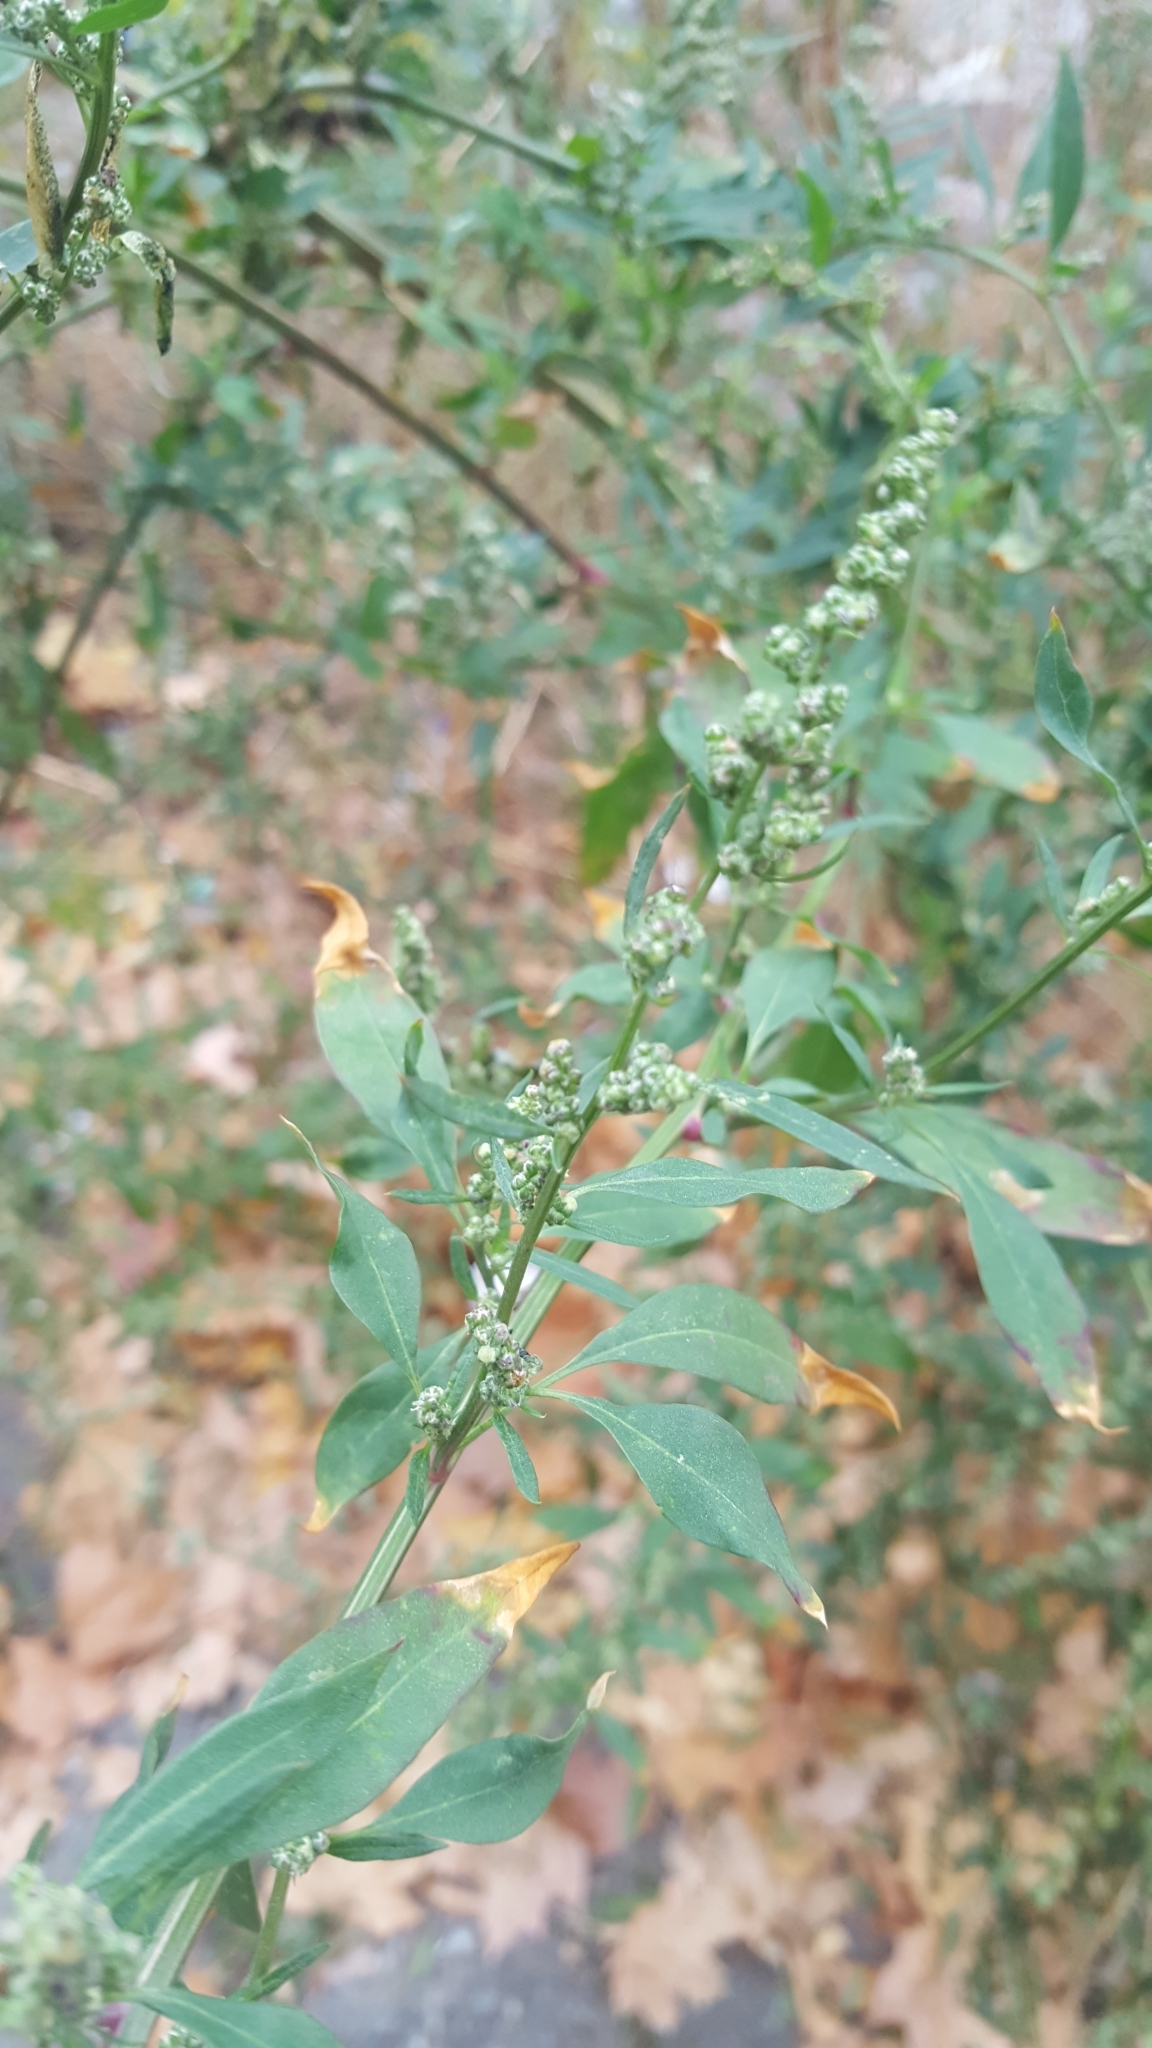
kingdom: Plantae
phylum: Tracheophyta
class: Magnoliopsida
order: Caryophyllales
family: Amaranthaceae
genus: Chenopodium
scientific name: Chenopodium album
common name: Fat-hen
